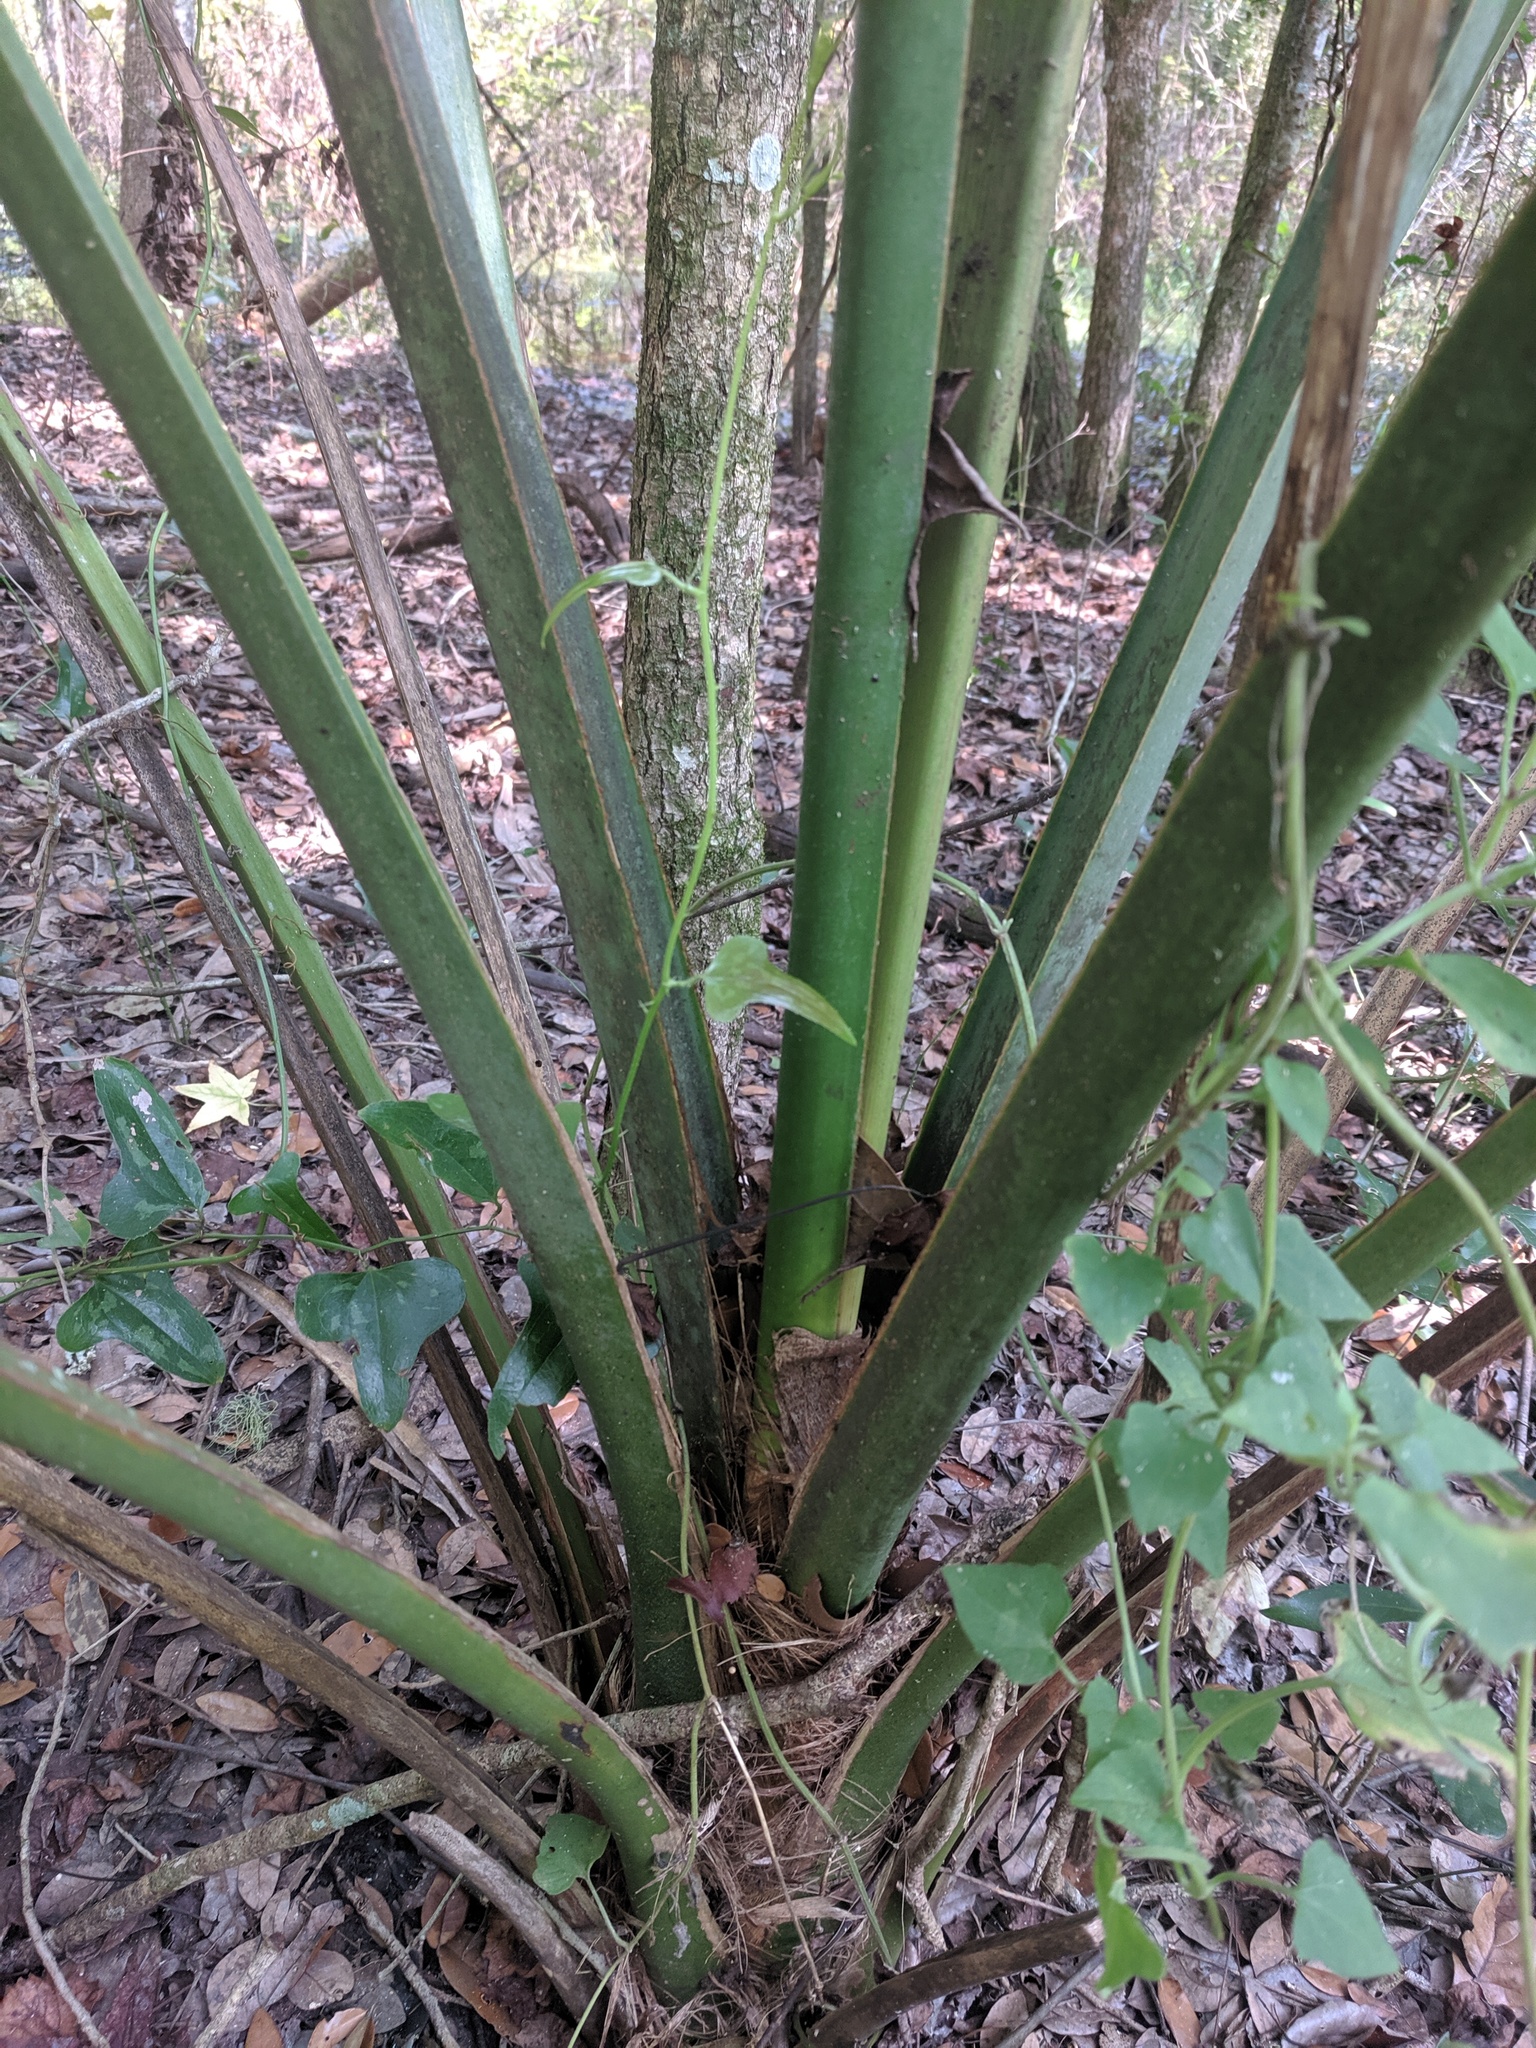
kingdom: Plantae
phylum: Tracheophyta
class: Liliopsida
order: Arecales
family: Arecaceae
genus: Sabal
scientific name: Sabal palmetto
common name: Blue palmetto
